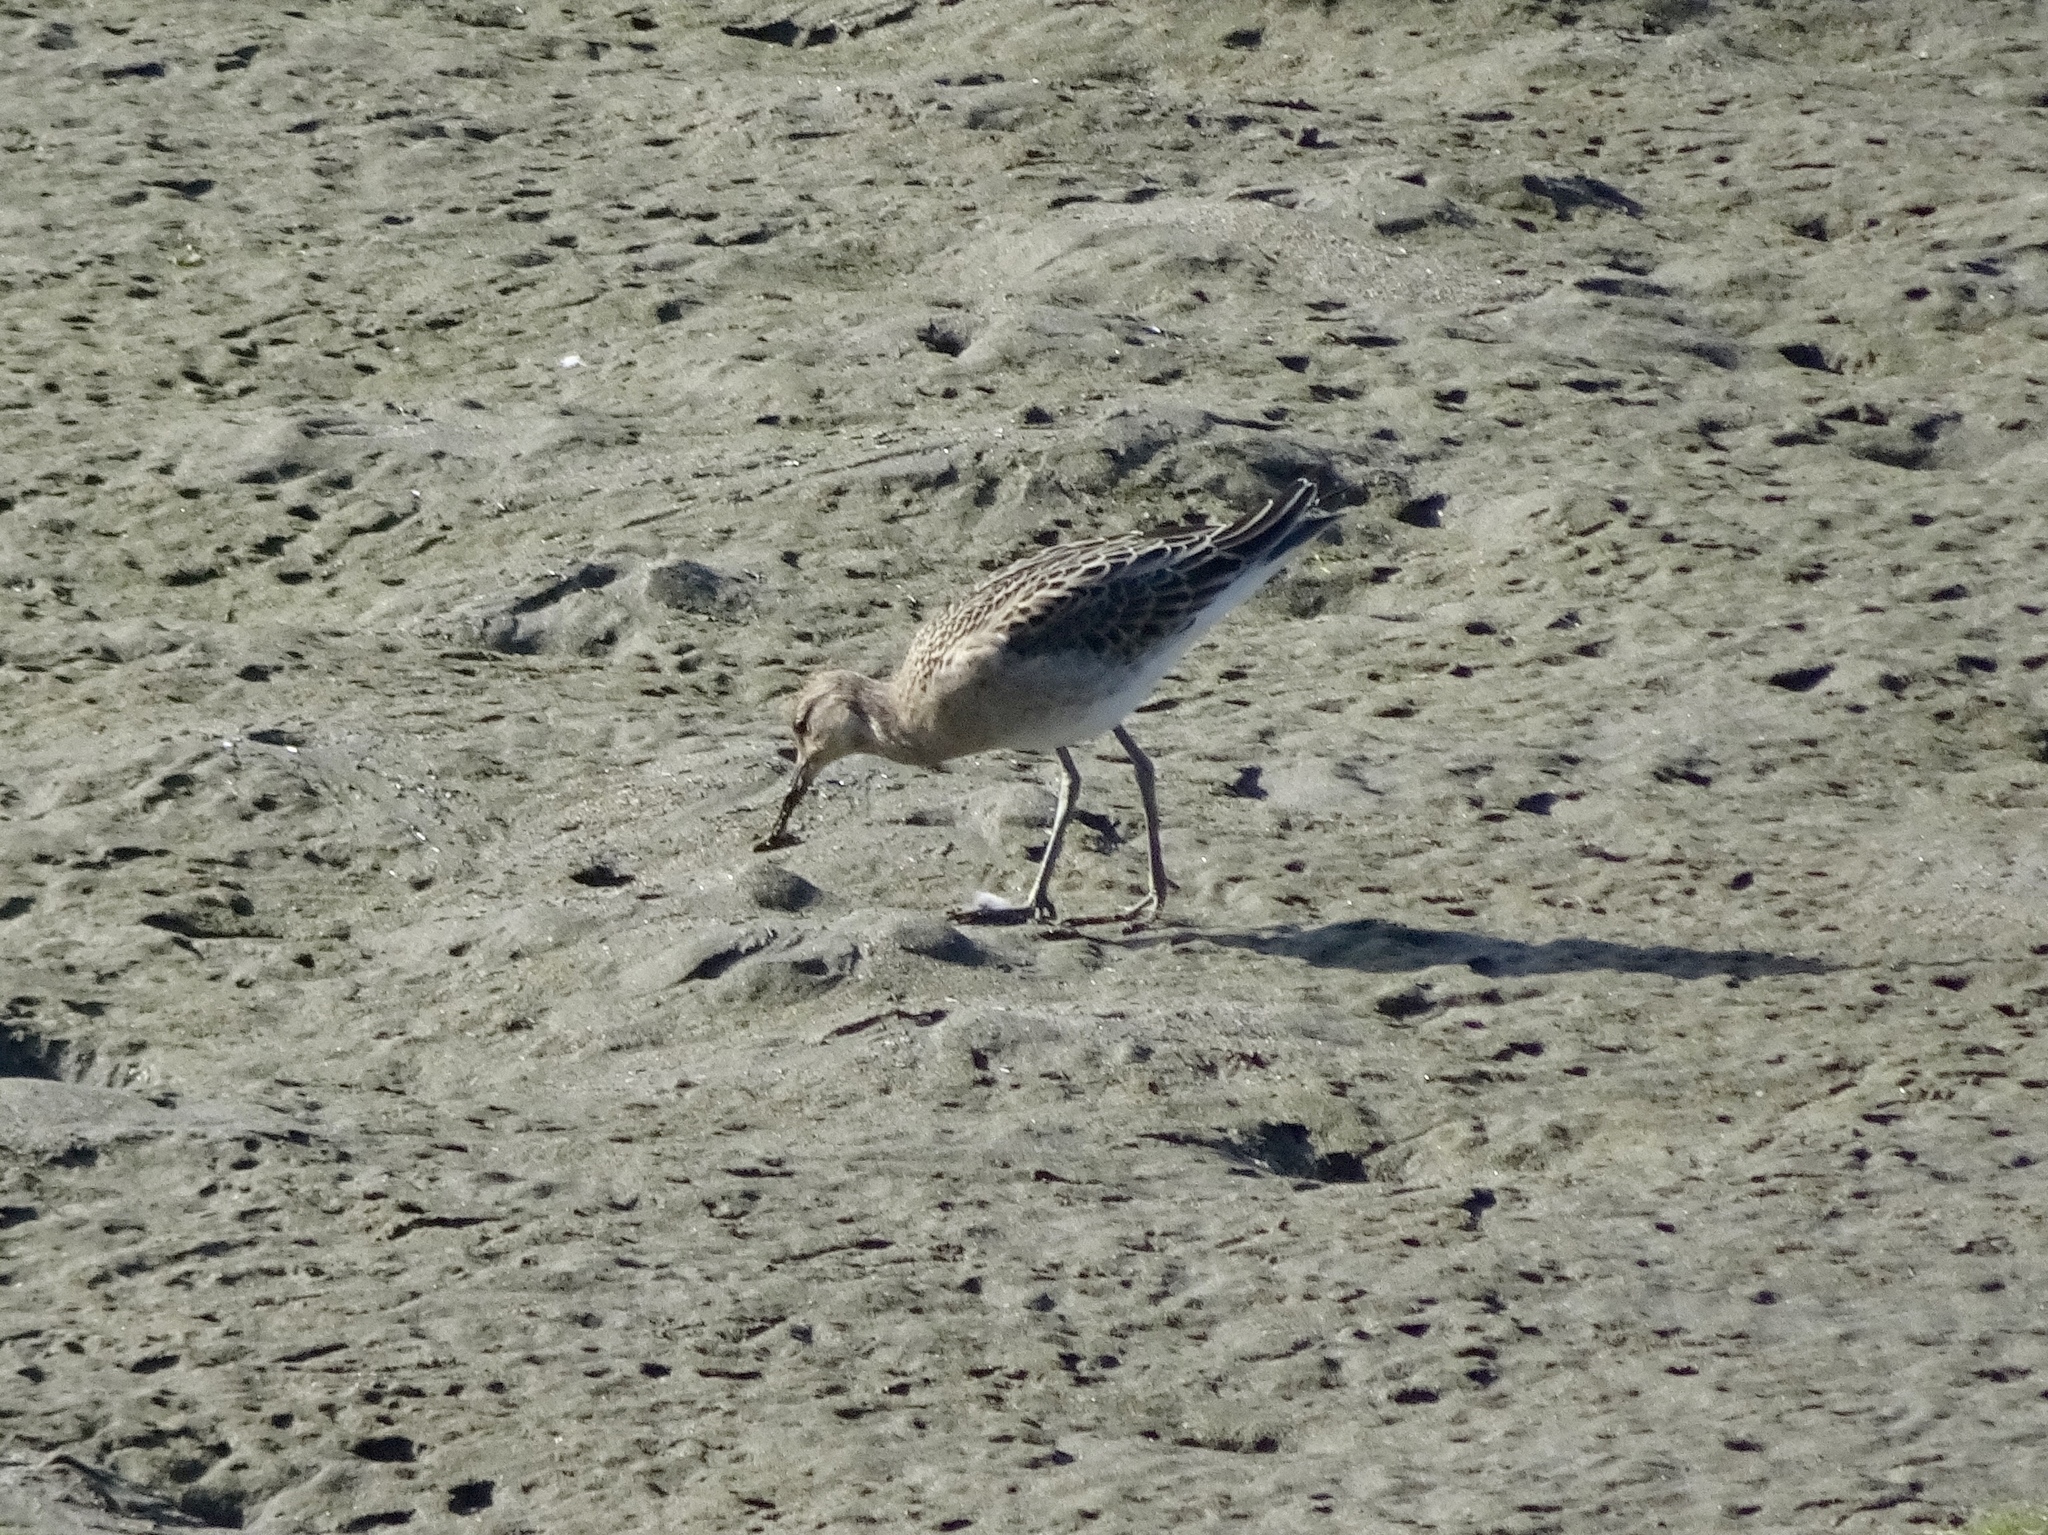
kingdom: Animalia
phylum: Chordata
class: Aves
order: Charadriiformes
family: Scolopacidae
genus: Calidris
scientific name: Calidris pugnax
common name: Ruff
